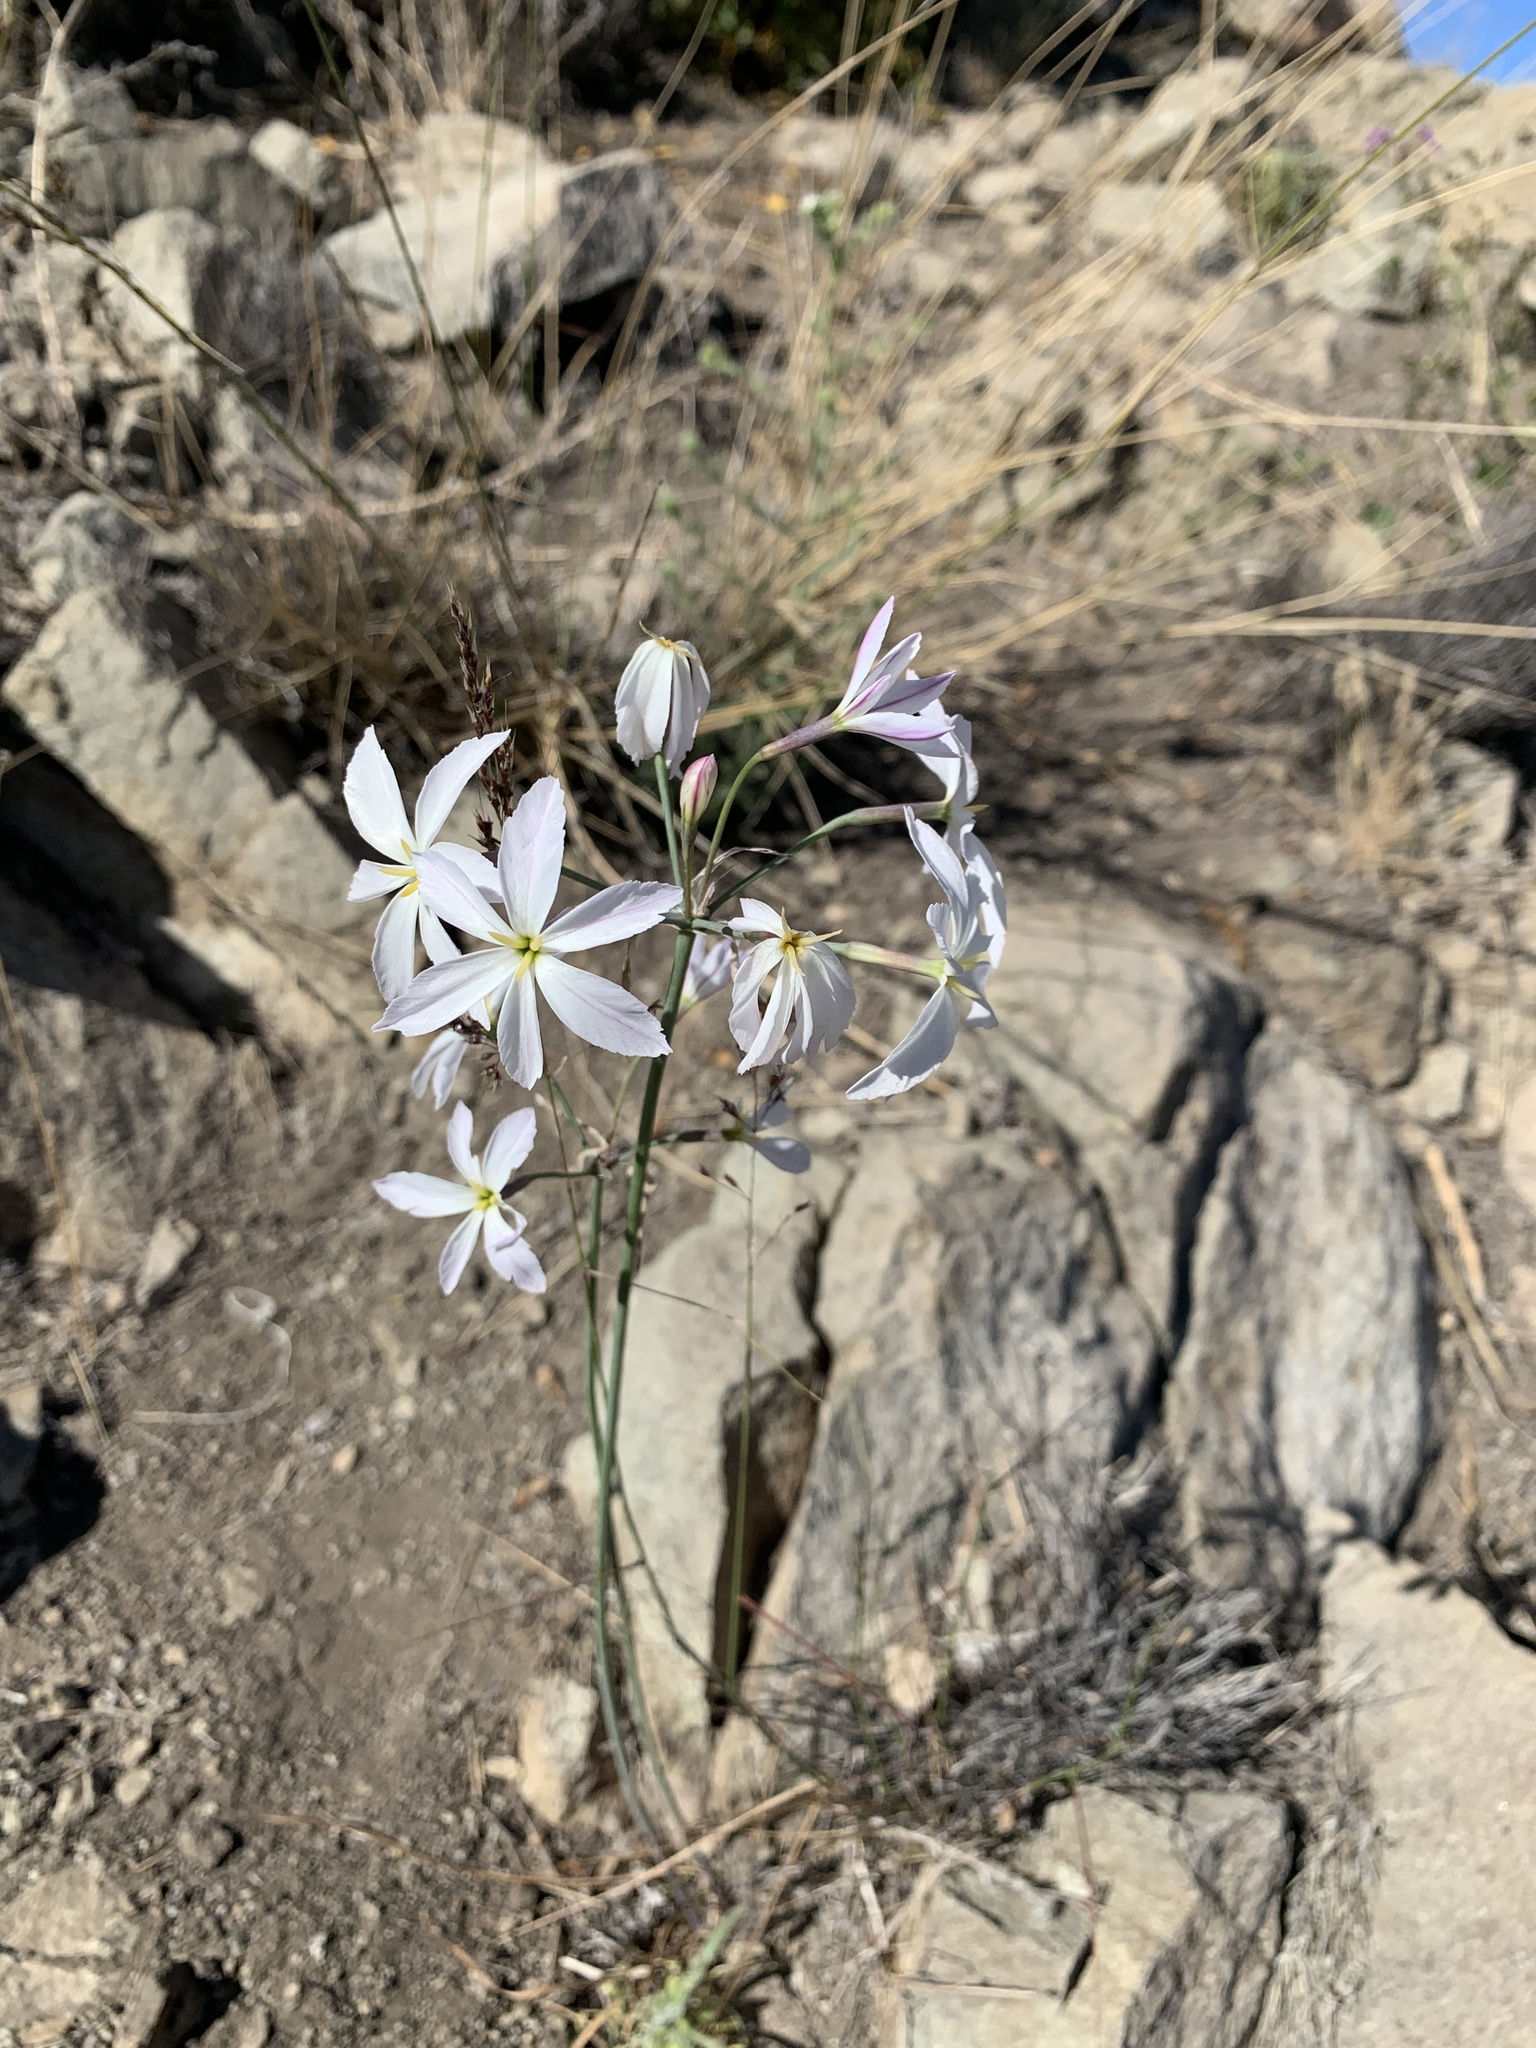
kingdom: Plantae
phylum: Tracheophyta
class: Liliopsida
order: Asparagales
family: Amaryllidaceae
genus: Leucocoryne
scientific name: Leucocoryne ixioides
